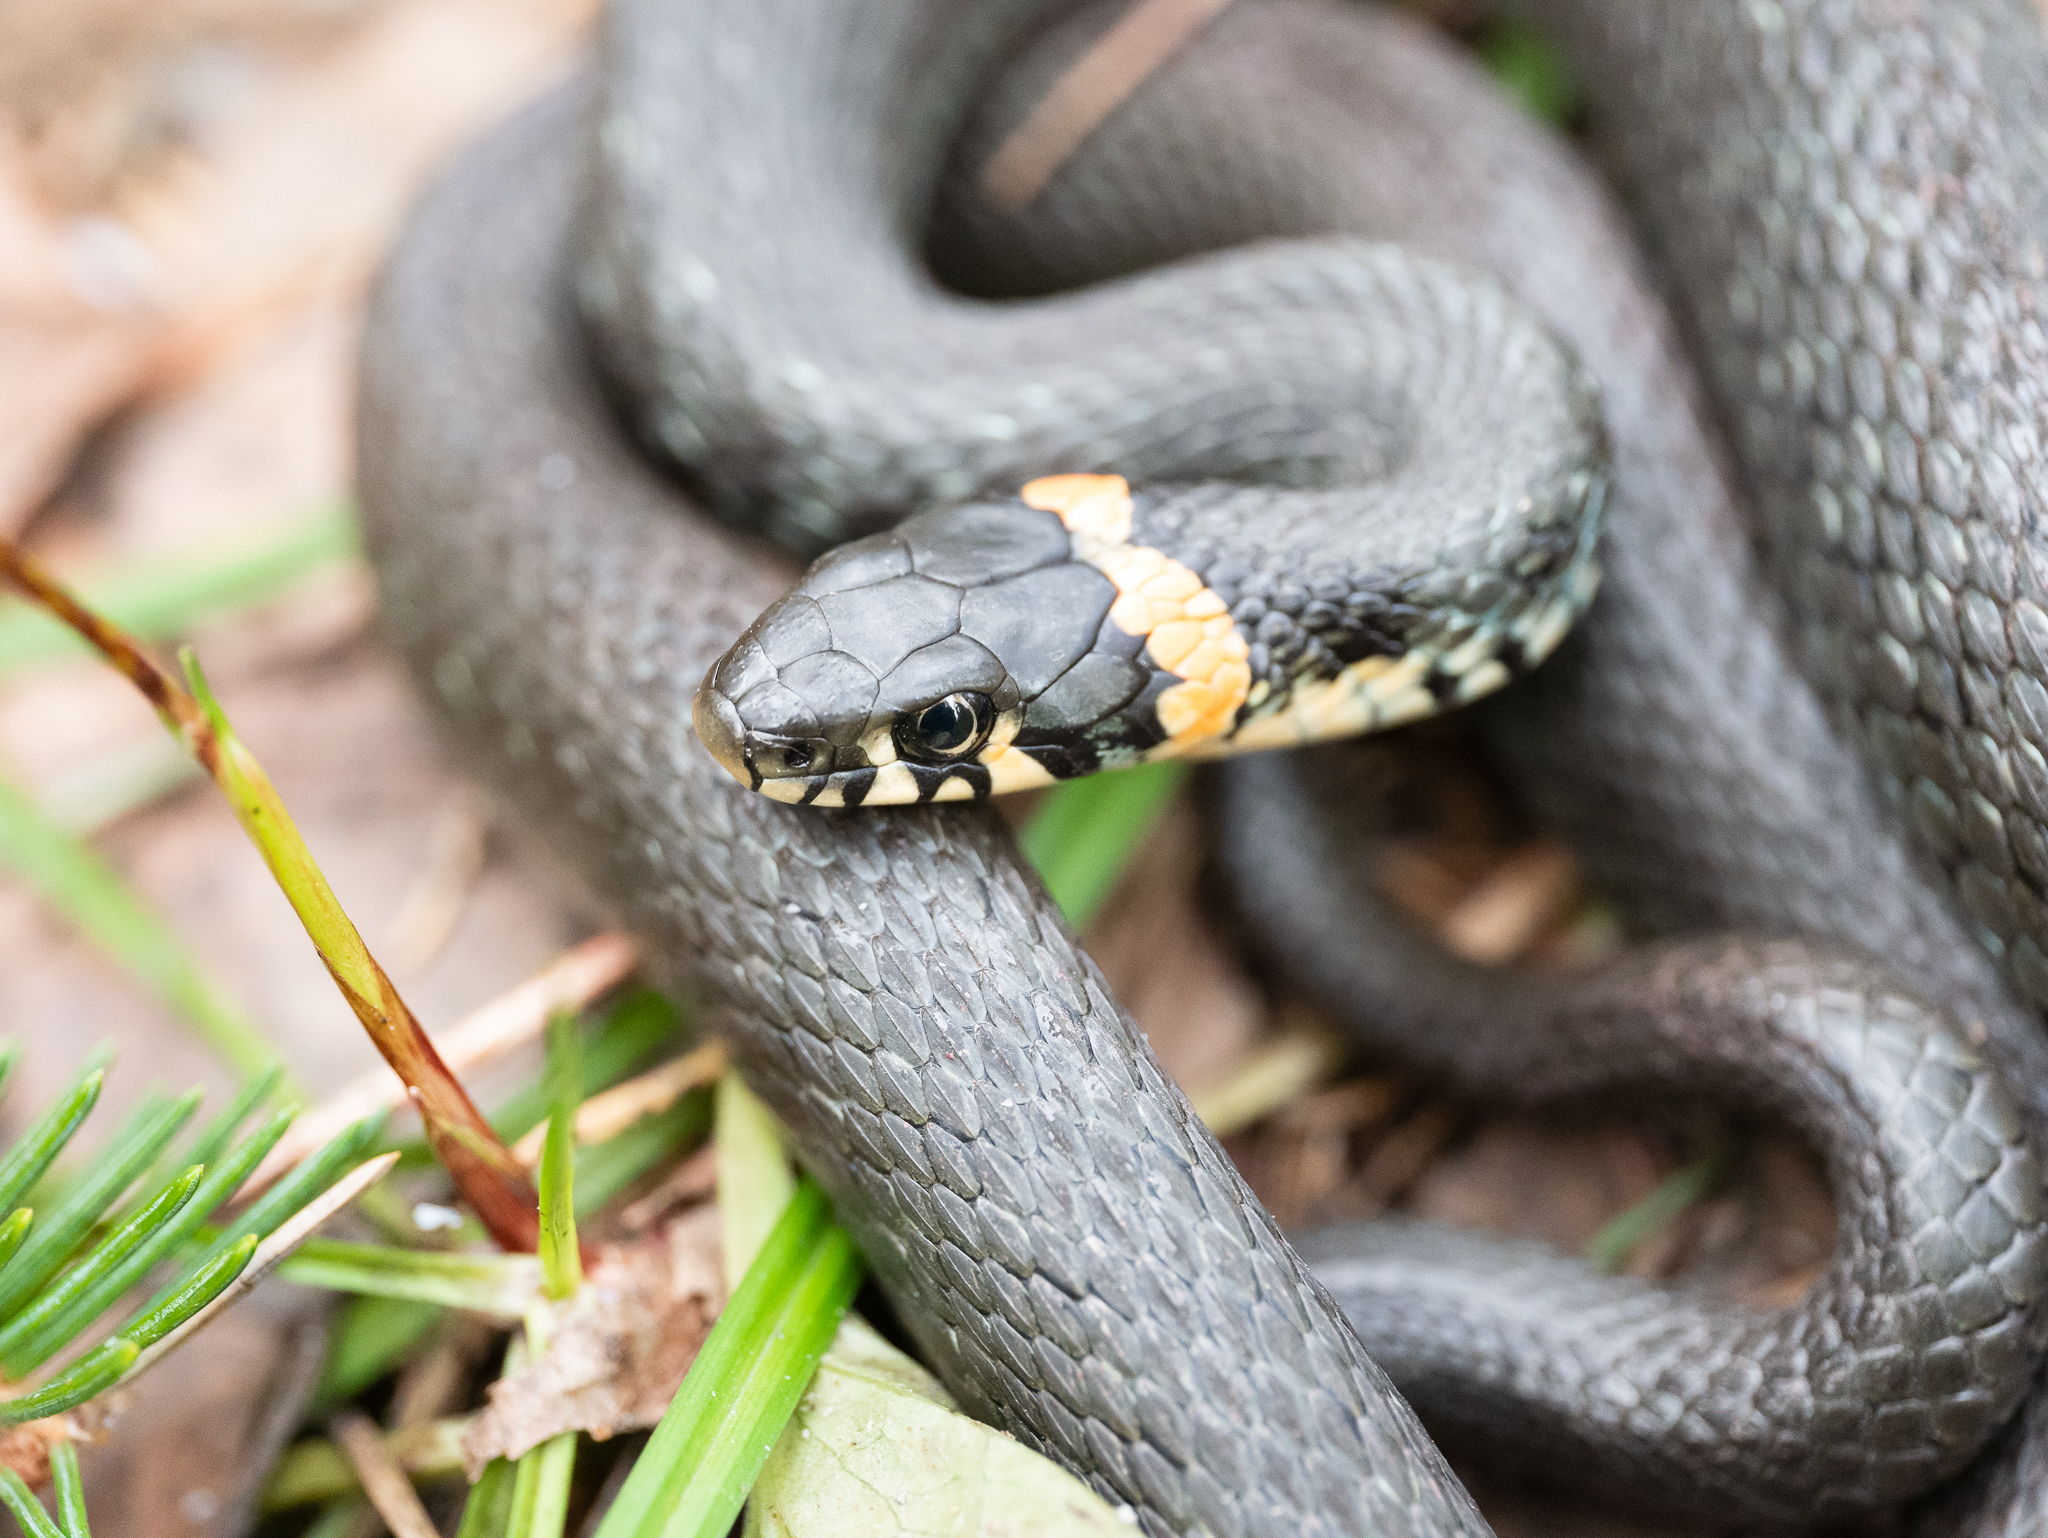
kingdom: Animalia
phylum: Chordata
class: Squamata
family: Colubridae
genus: Natrix
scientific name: Natrix natrix
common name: Grass snake
